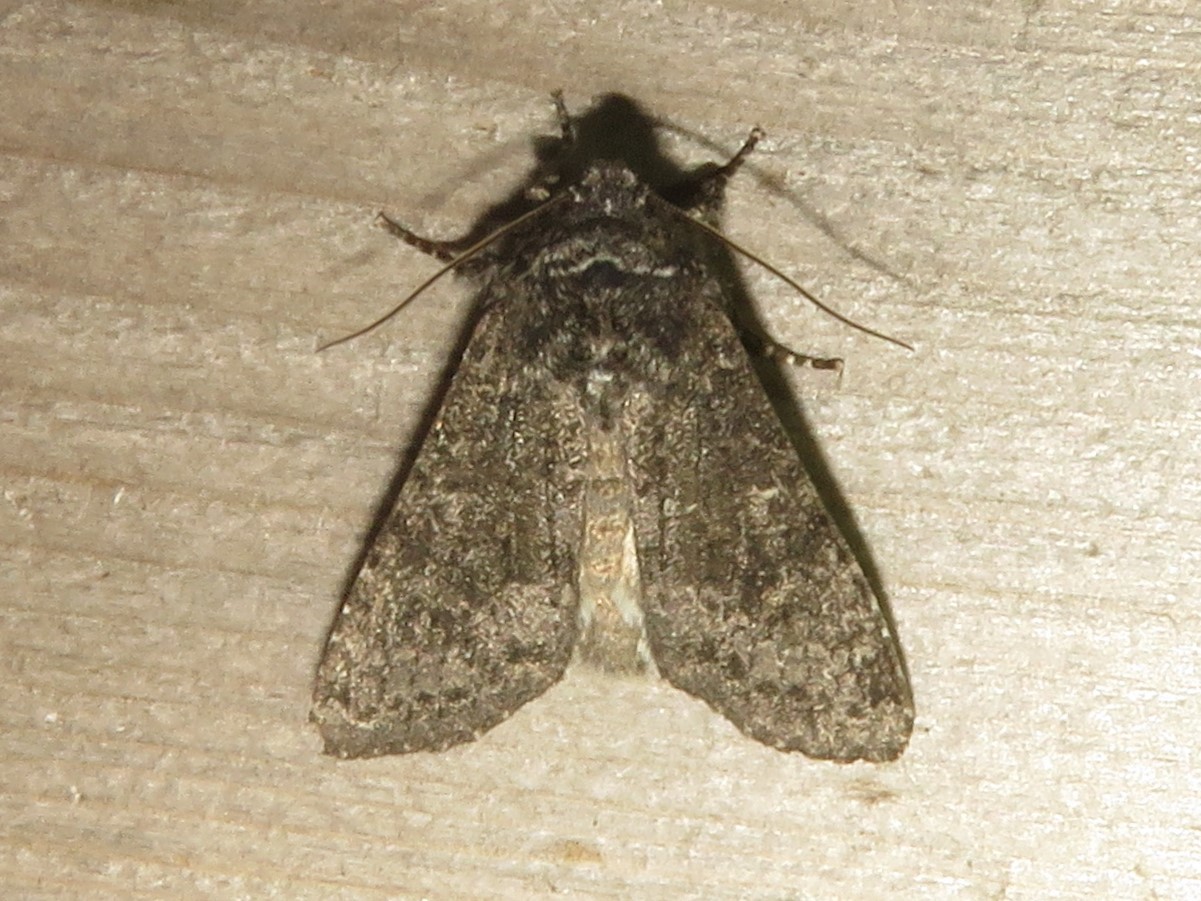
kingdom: Animalia
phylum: Arthropoda
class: Insecta
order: Lepidoptera
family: Noctuidae
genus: Egira
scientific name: Egira dolosa
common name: Lined black aspen cat.
